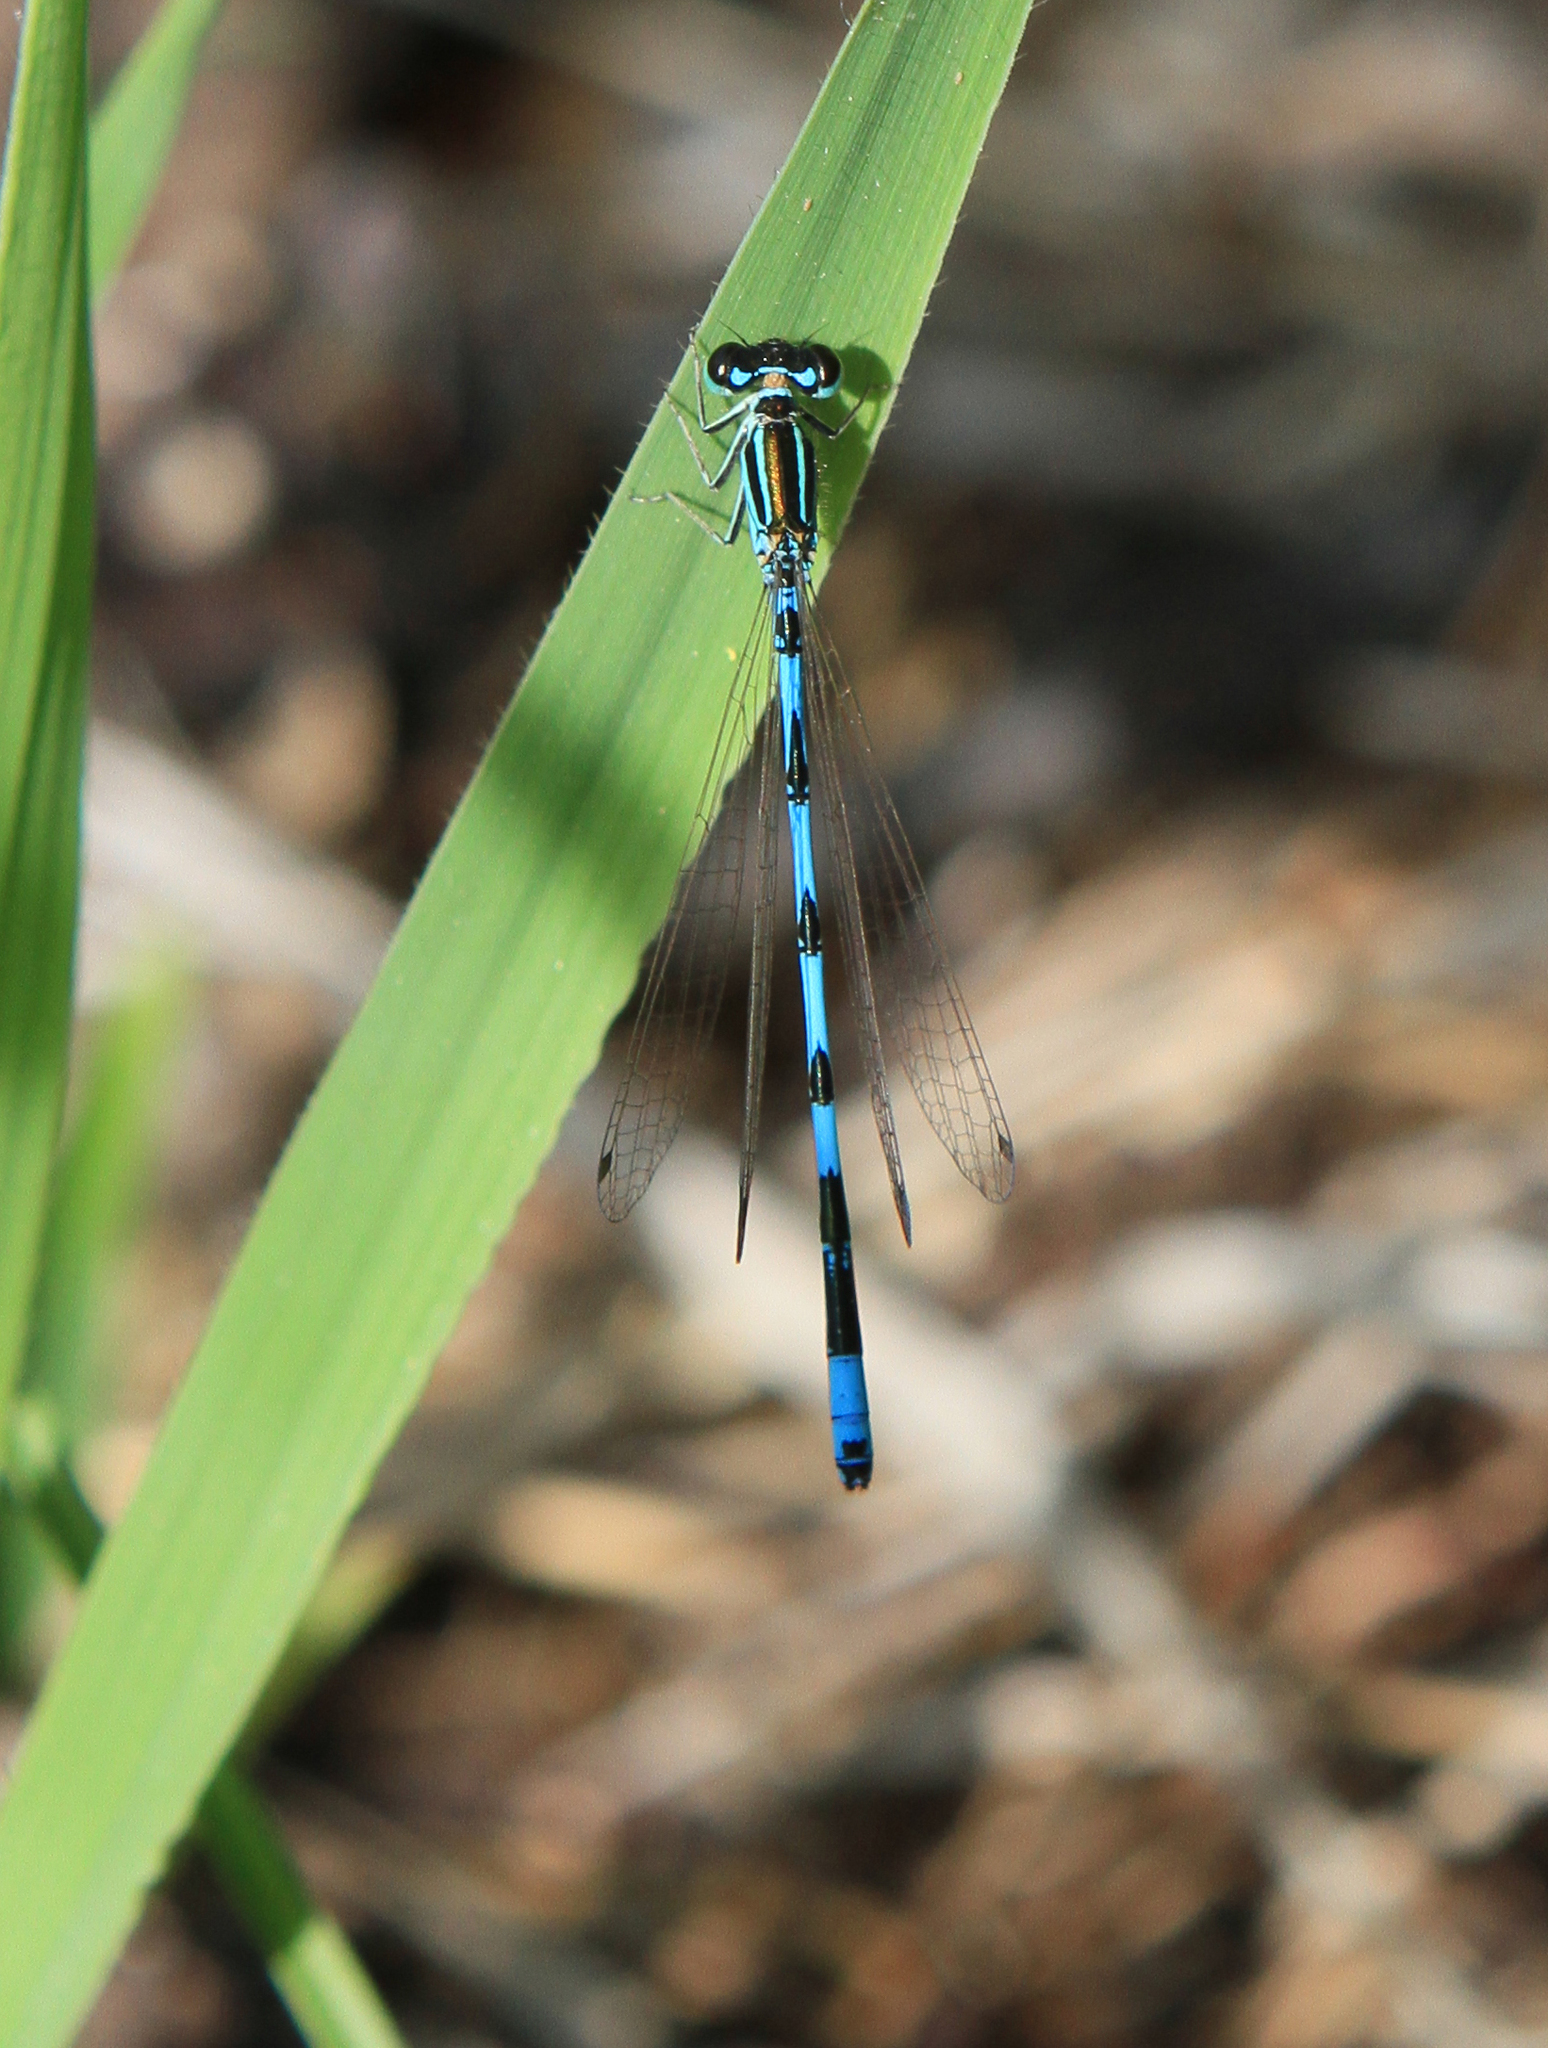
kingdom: Animalia
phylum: Arthropoda
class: Insecta
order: Odonata
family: Coenagrionidae
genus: Coenagrion
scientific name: Coenagrion ecornutum
